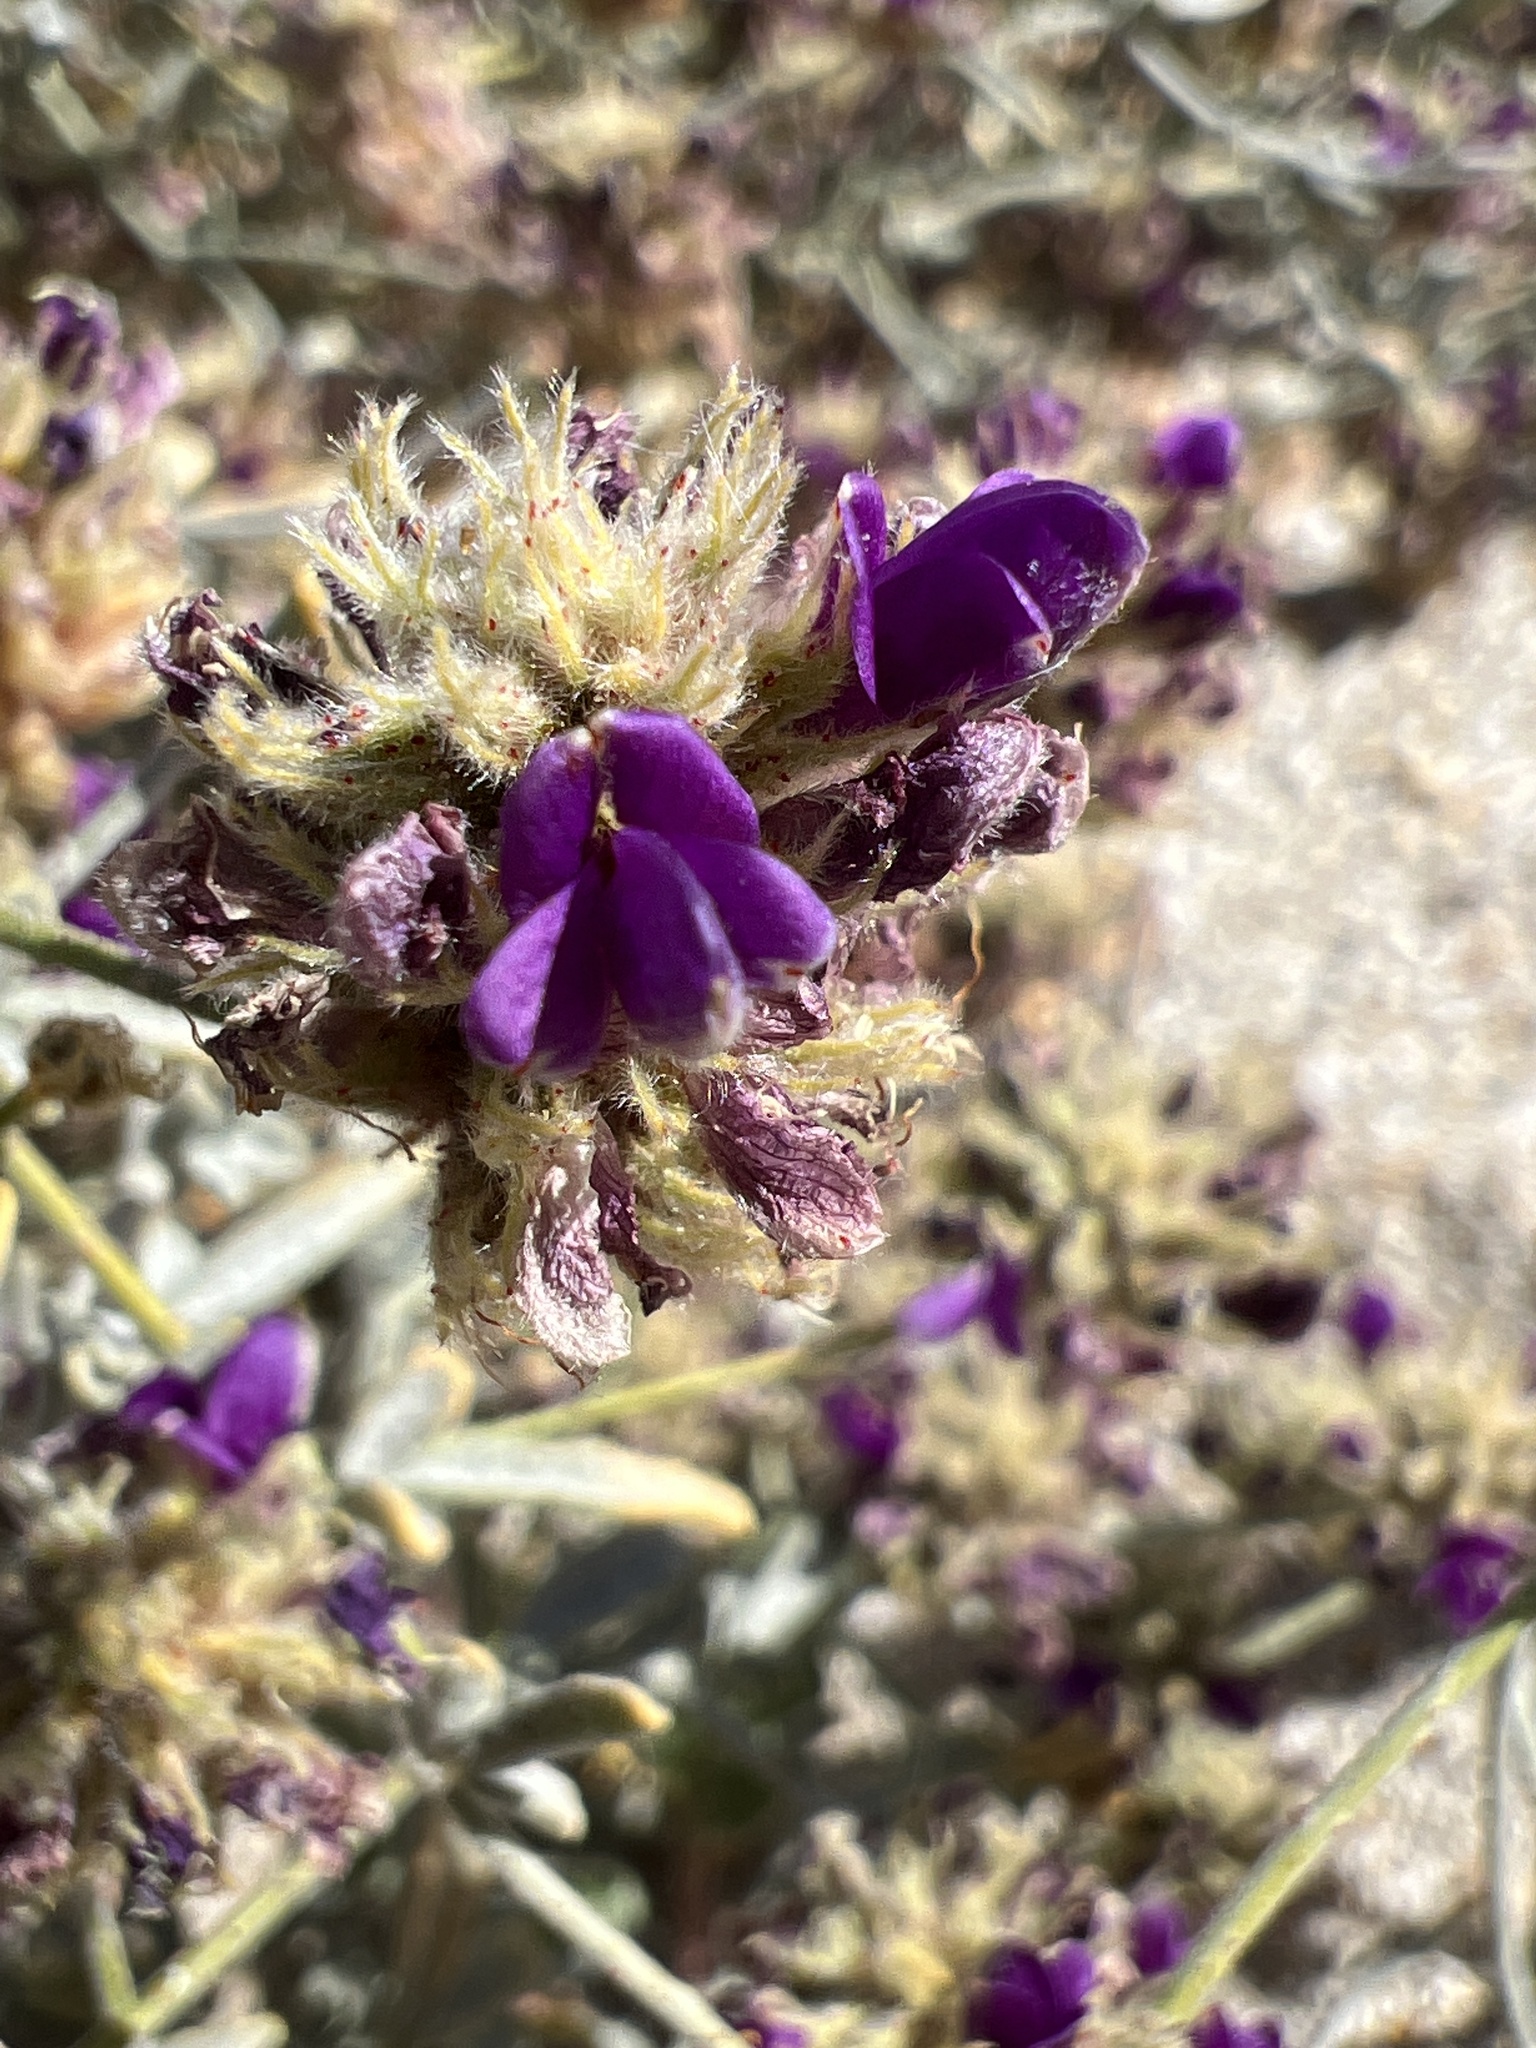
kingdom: Plantae
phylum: Tracheophyta
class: Magnoliopsida
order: Fabales
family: Fabaceae
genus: Psorothamnus
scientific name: Psorothamnus emoryi
